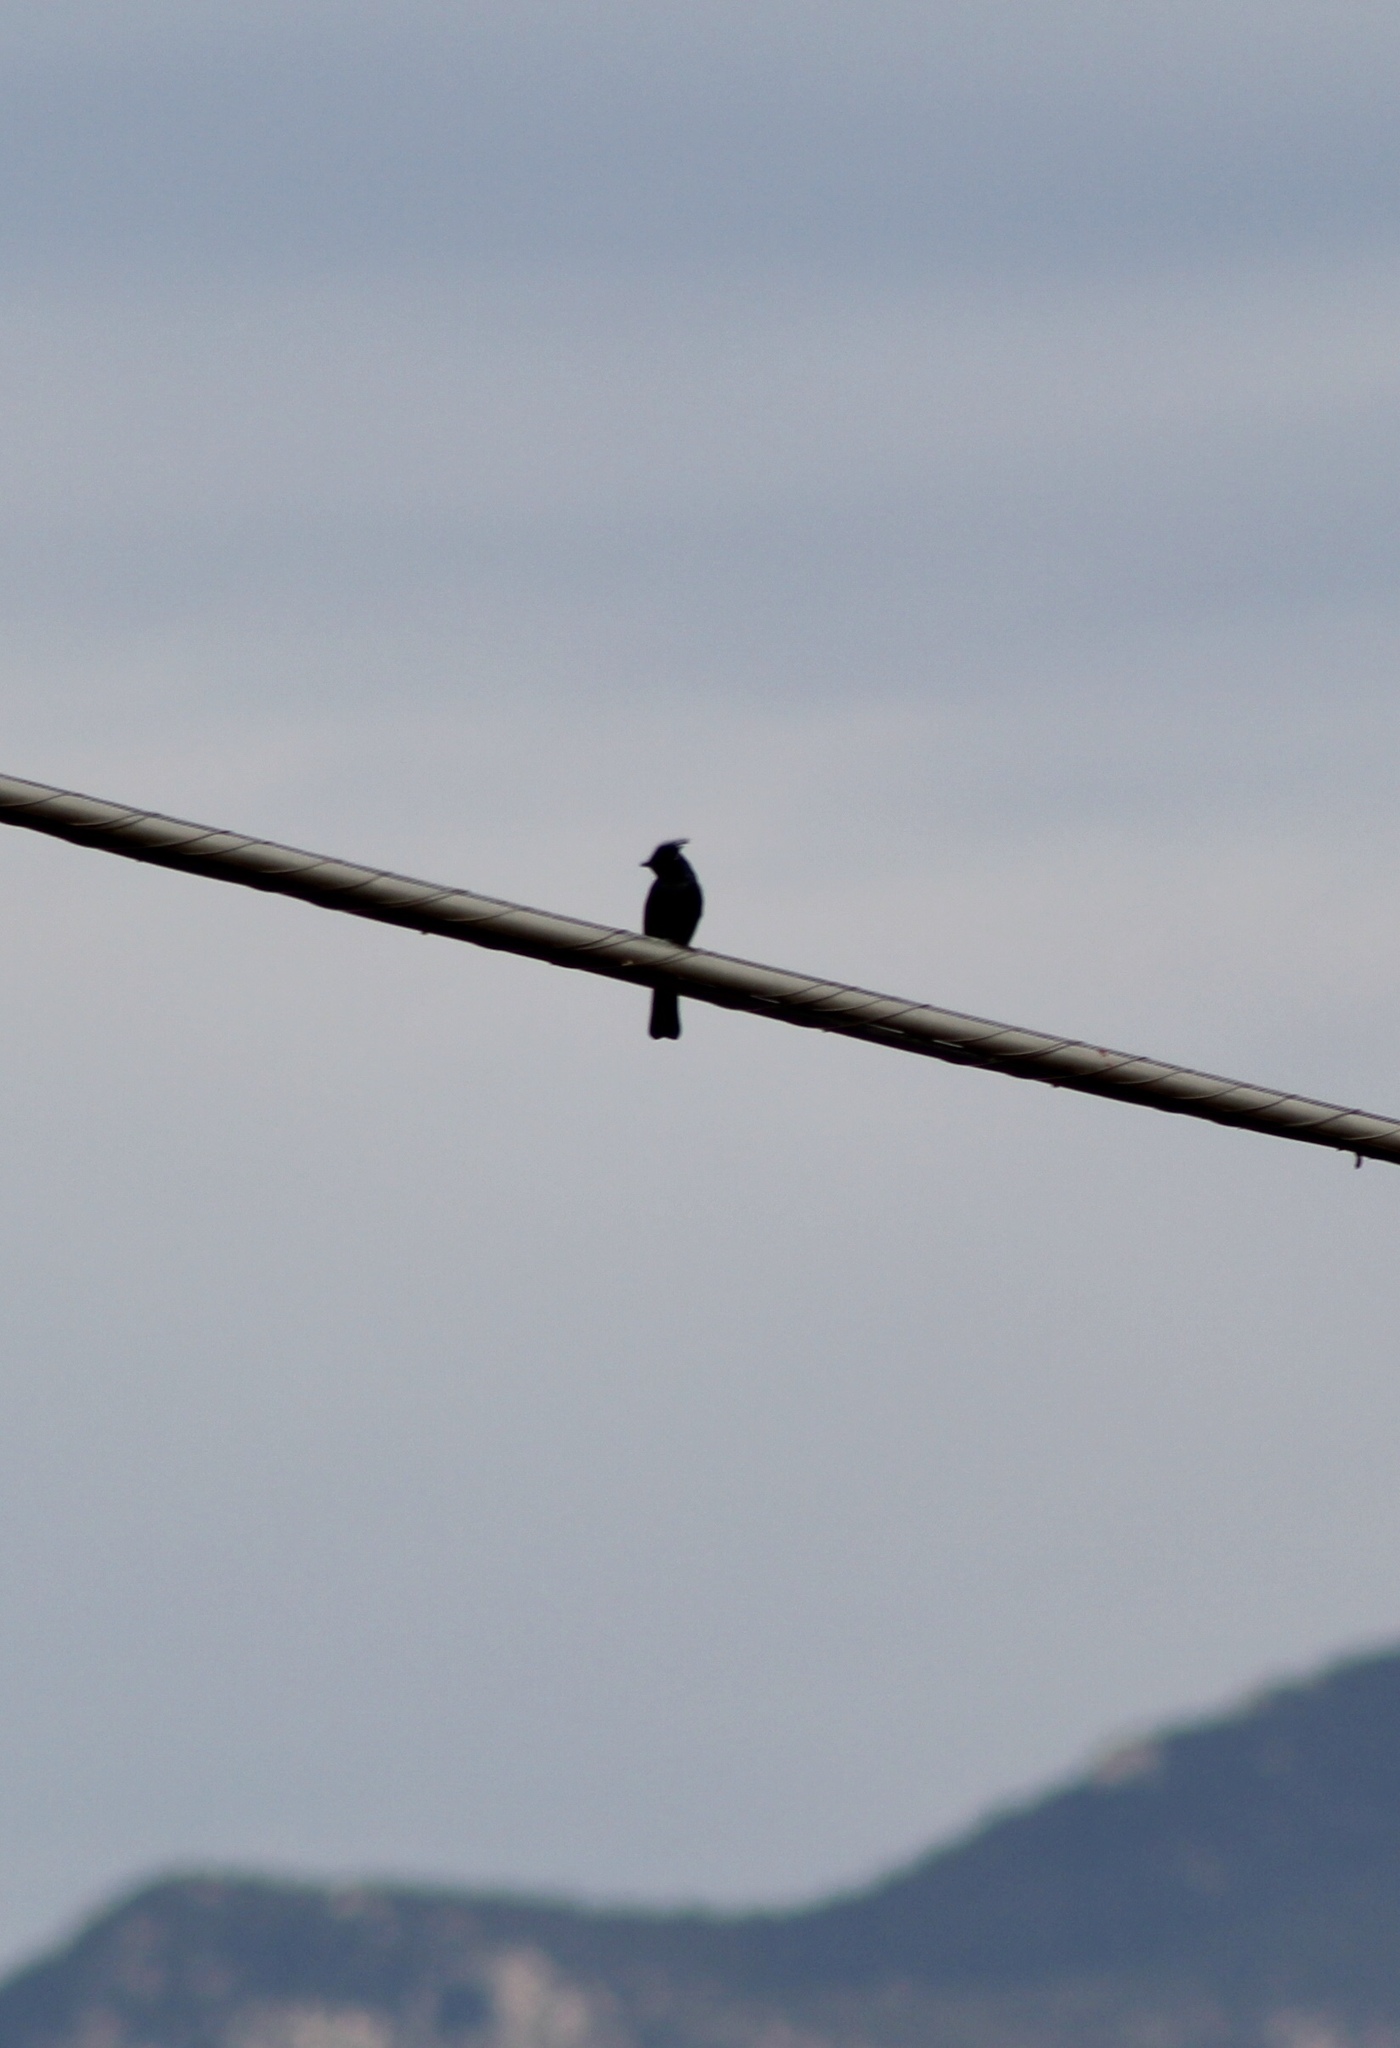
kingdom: Animalia
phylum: Chordata
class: Aves
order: Passeriformes
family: Ptilogonatidae
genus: Phainopepla
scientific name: Phainopepla nitens
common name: Phainopepla
